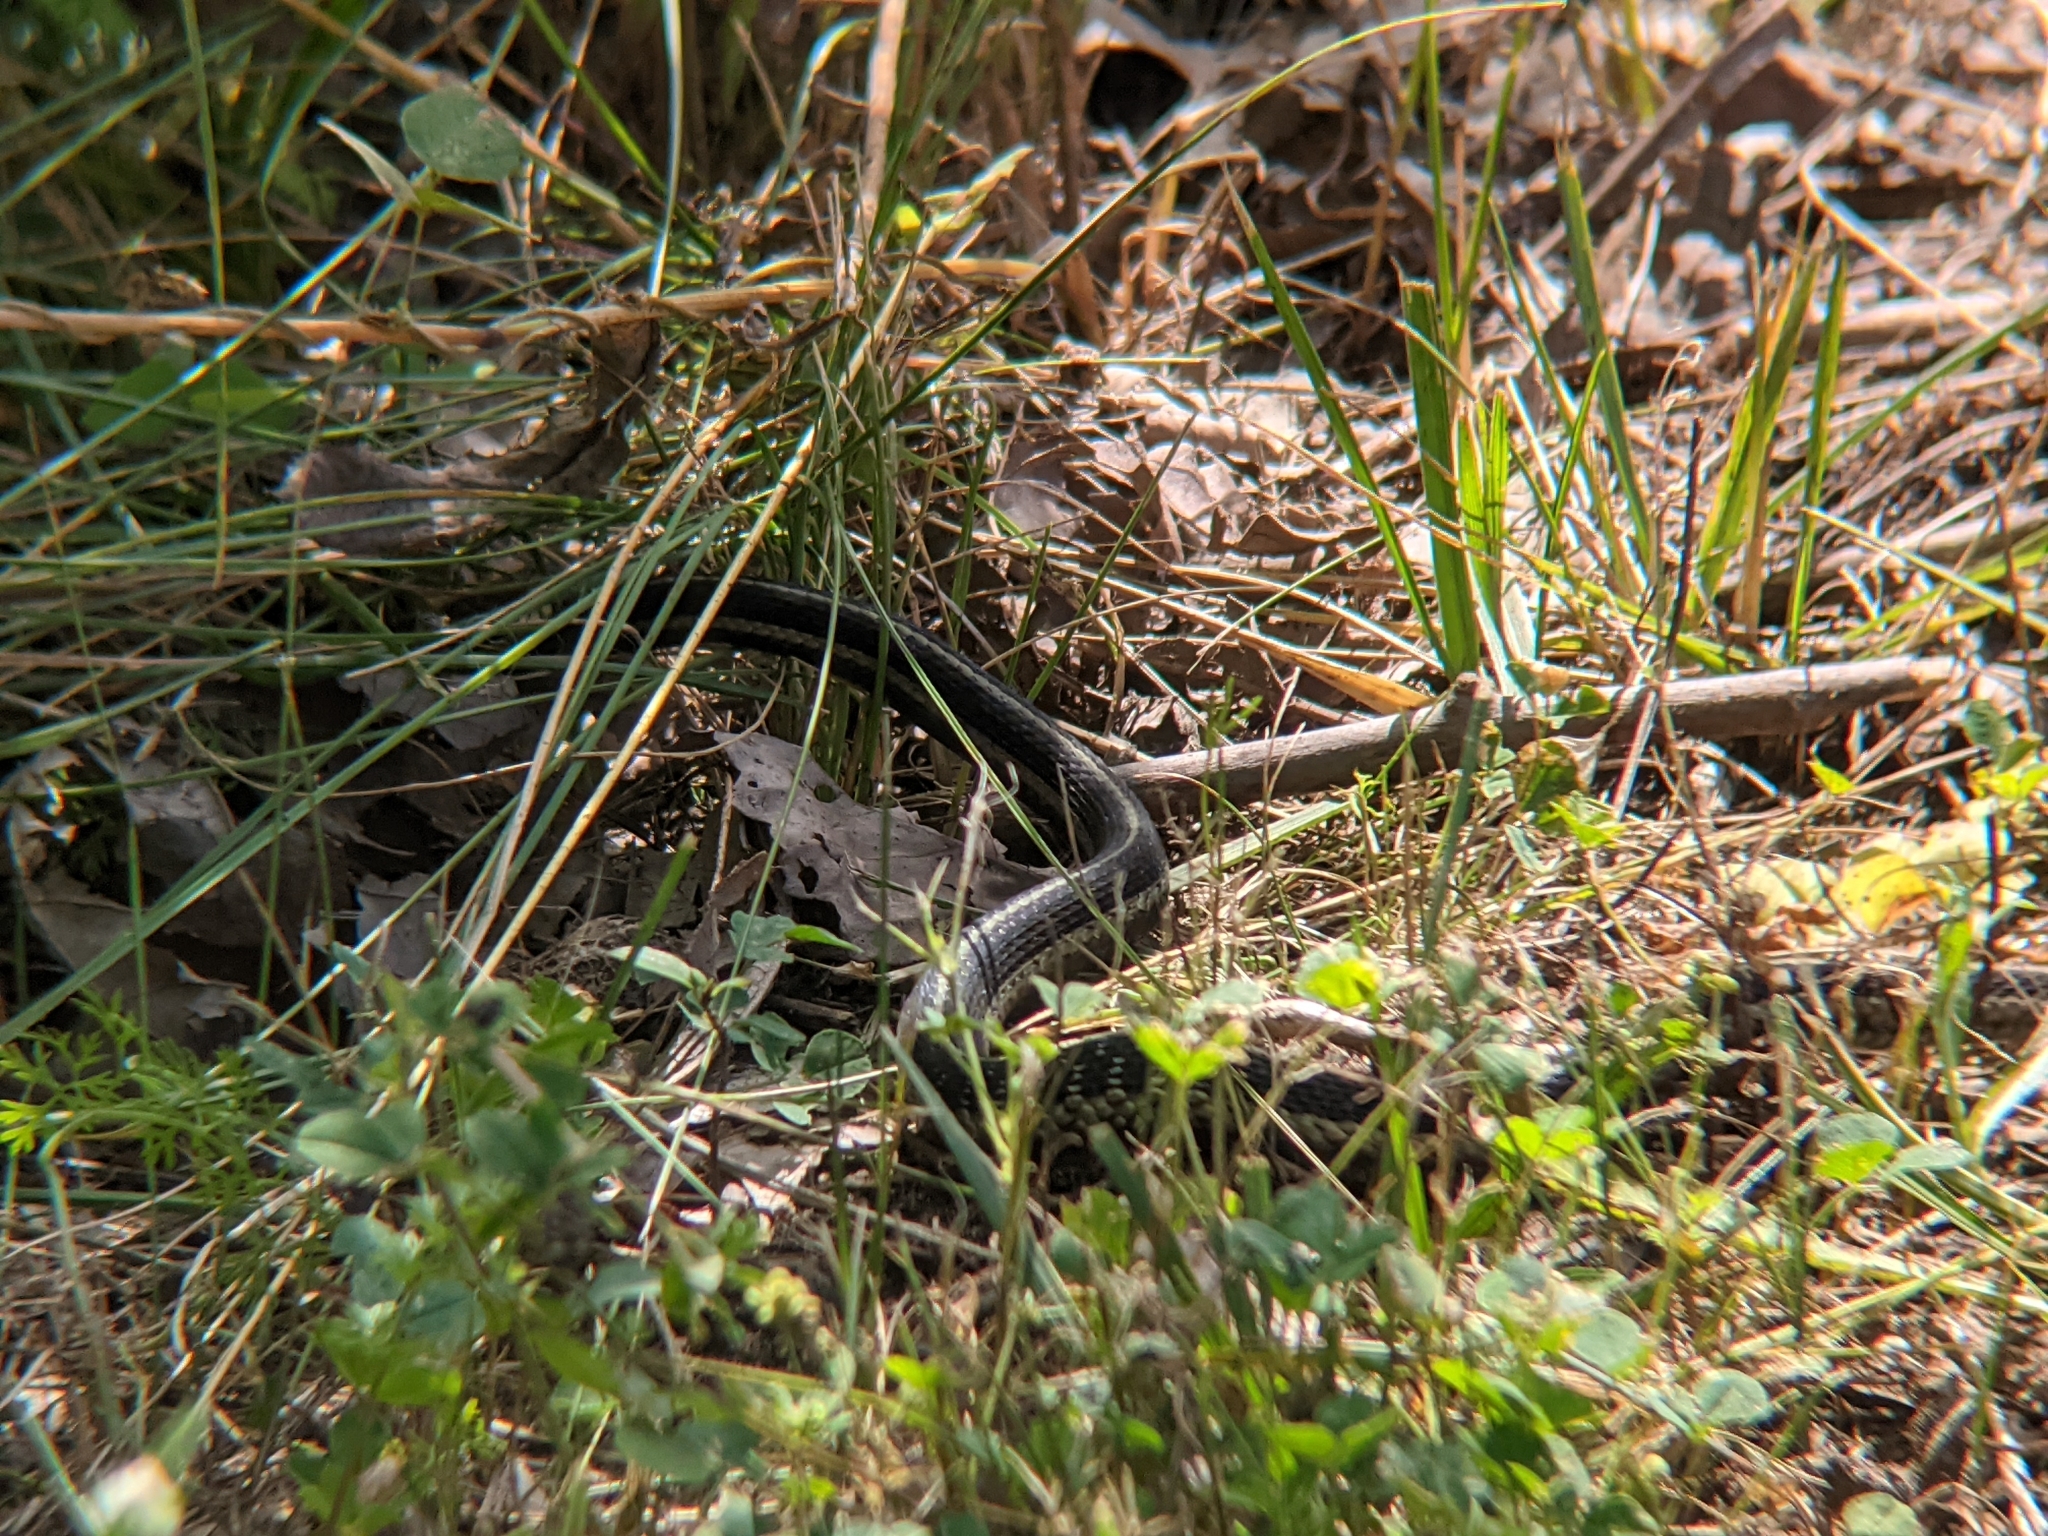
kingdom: Animalia
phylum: Chordata
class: Squamata
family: Colubridae
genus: Thamnophis
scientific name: Thamnophis sirtalis
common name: Common garter snake
